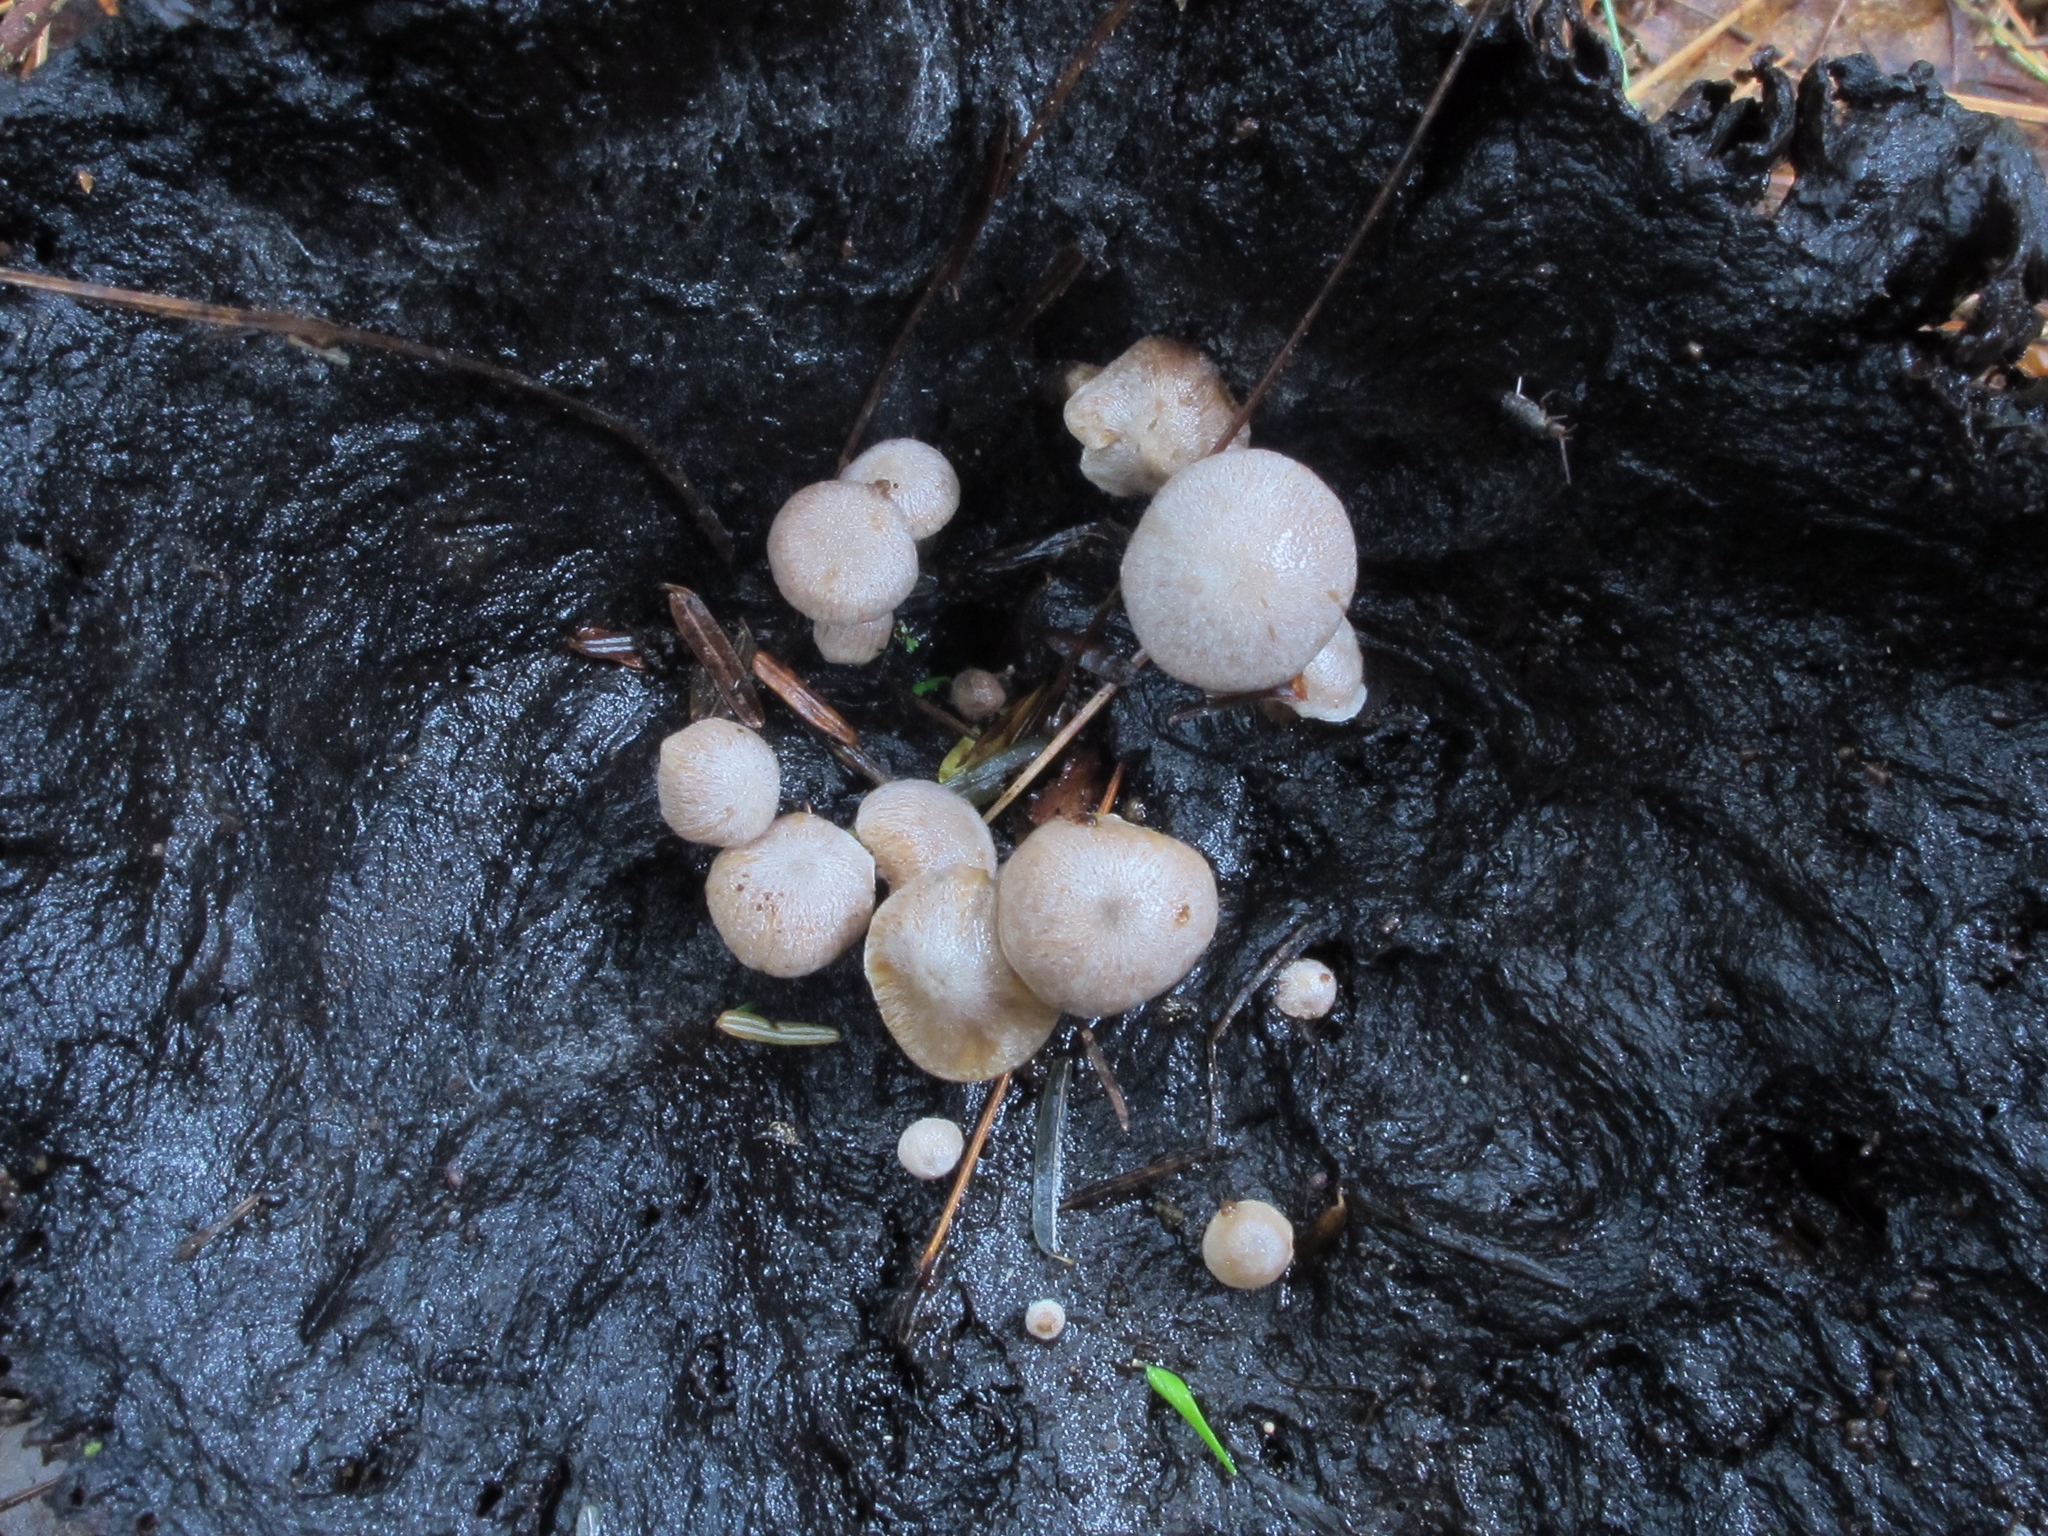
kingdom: Fungi
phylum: Basidiomycota
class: Agaricomycetes
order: Agaricales
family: Lyophyllaceae
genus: Asterophora
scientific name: Asterophora parasitica
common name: Silky piggyback
